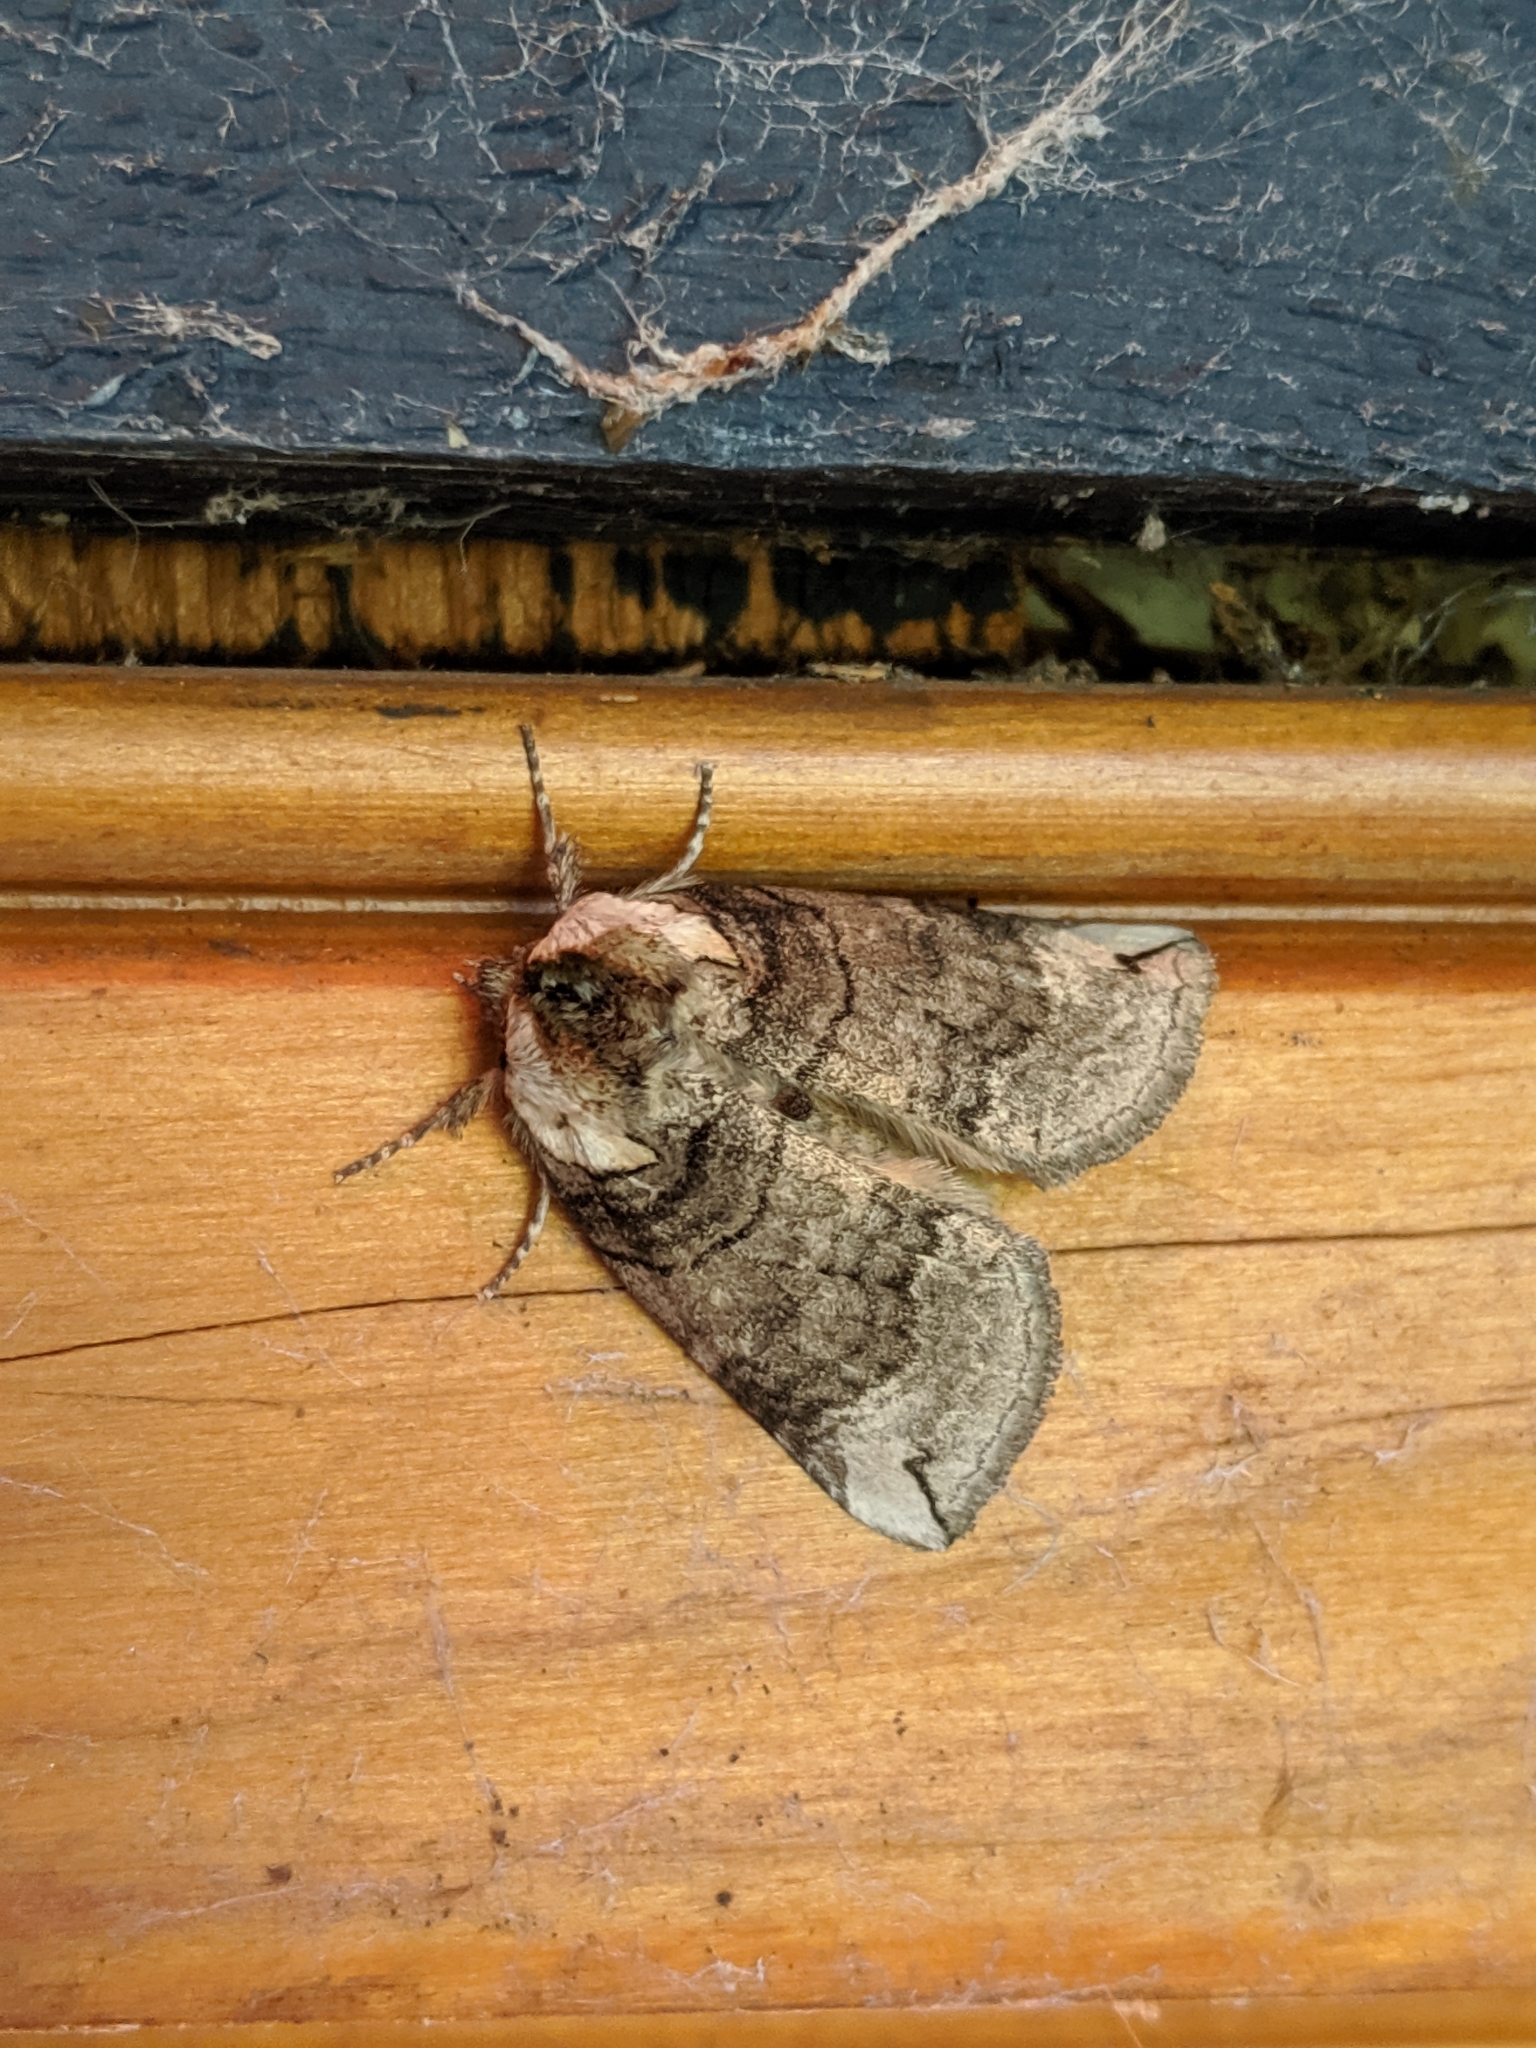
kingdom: Animalia
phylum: Arthropoda
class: Insecta
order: Lepidoptera
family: Drepanidae
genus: Euthyatira
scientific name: Euthyatira semicircularis
